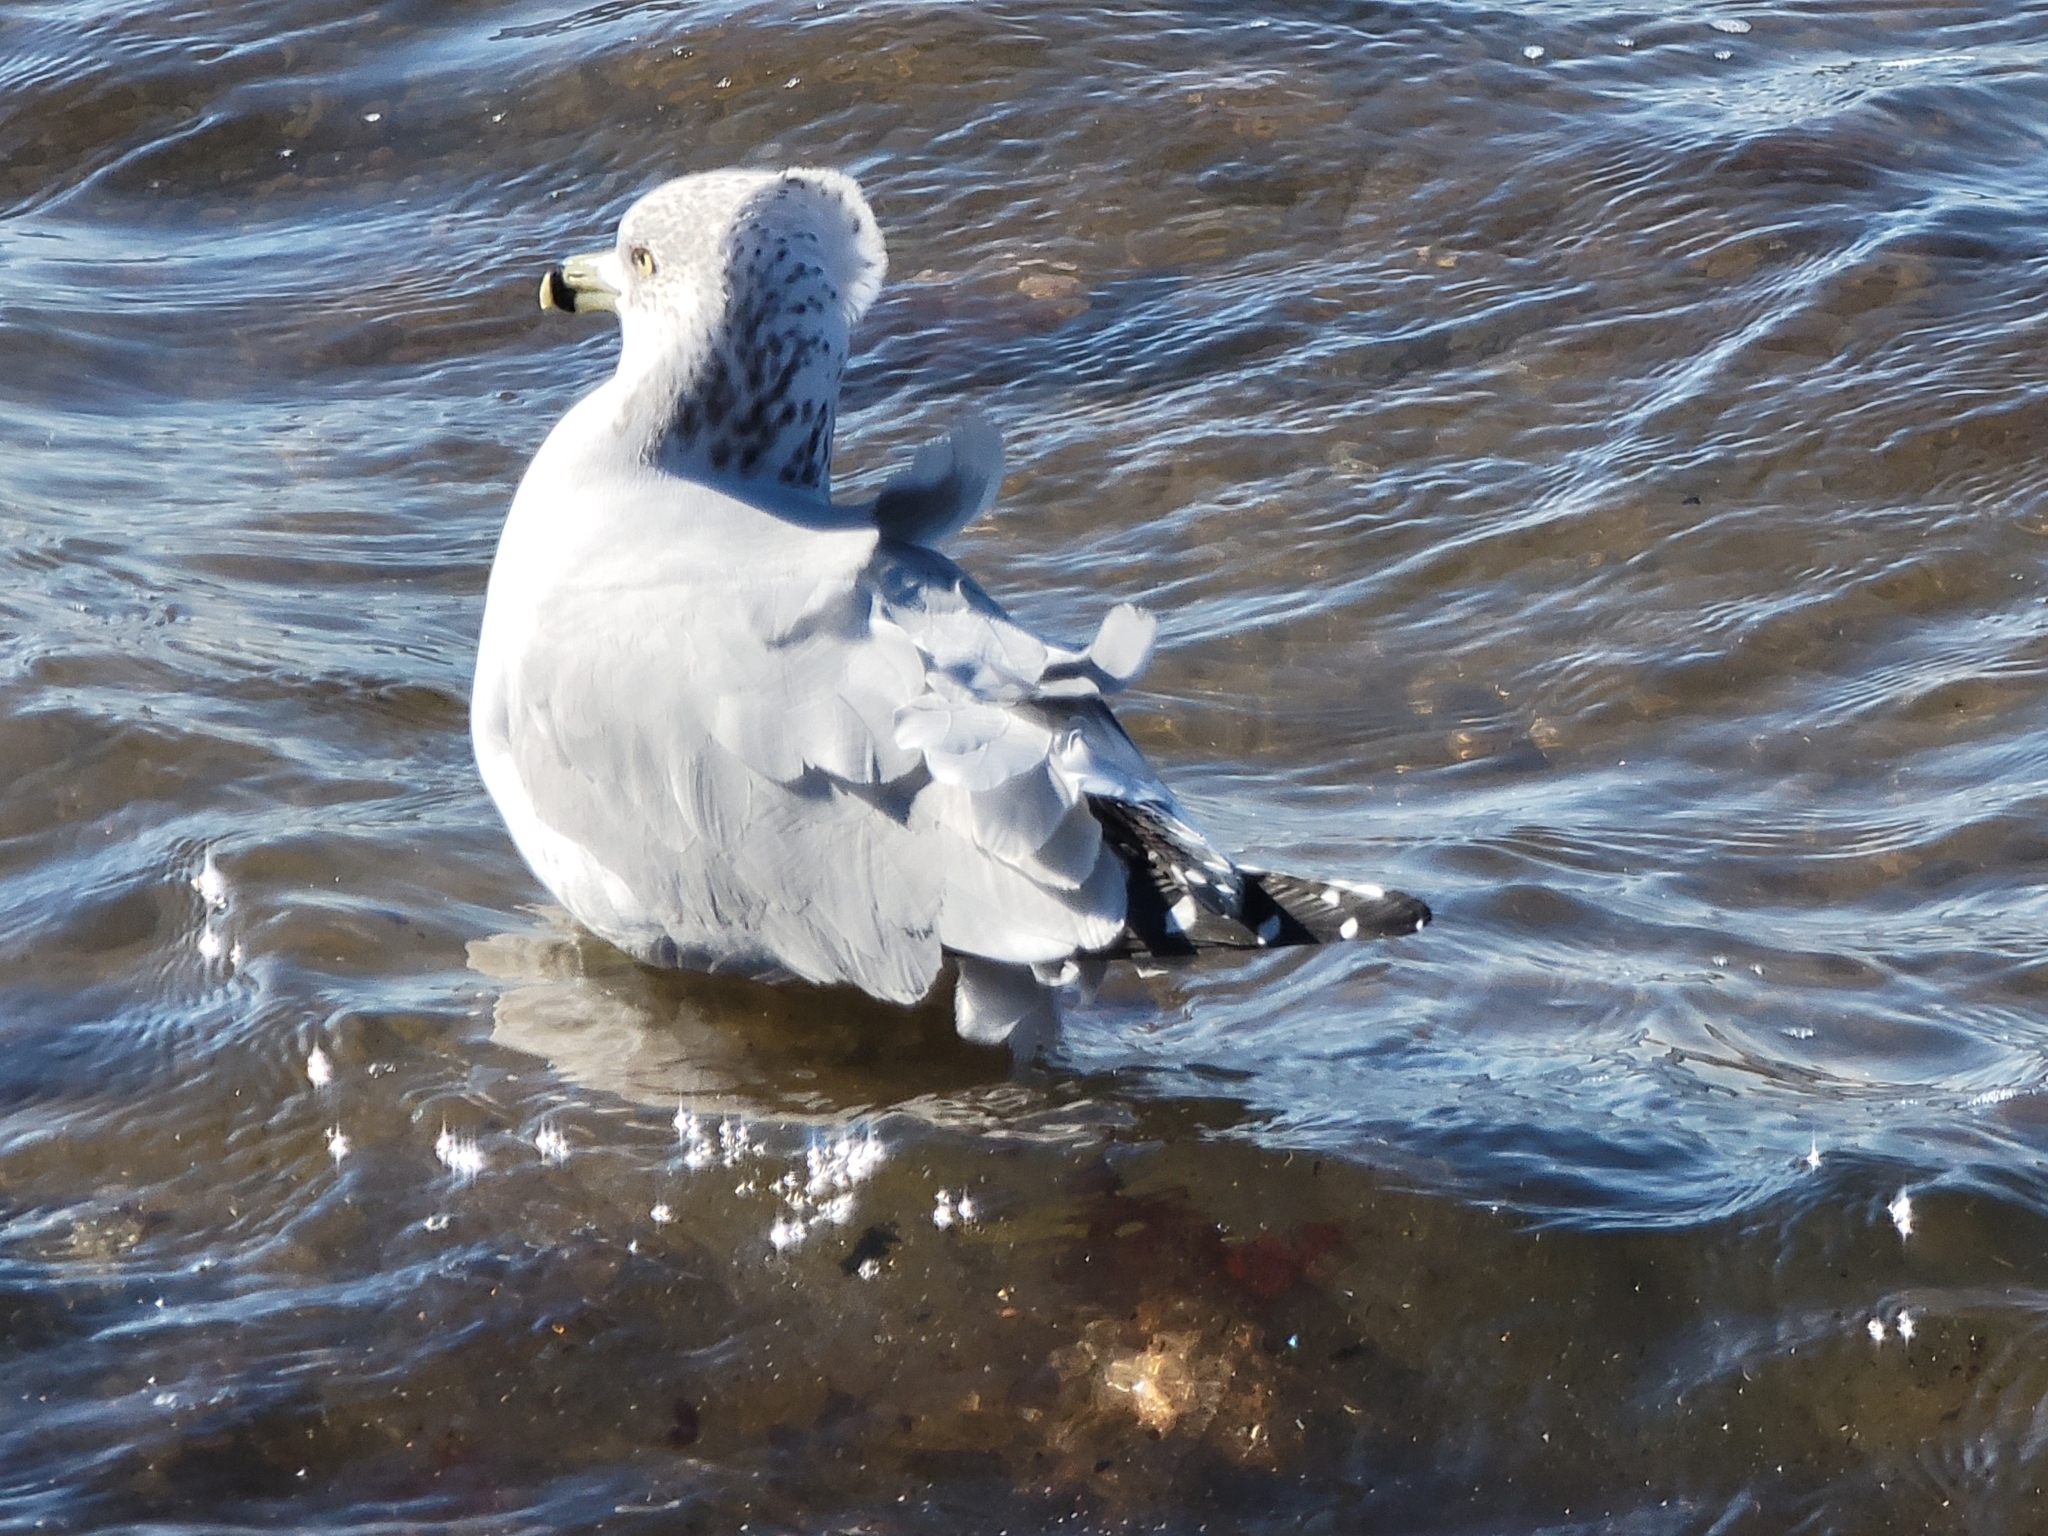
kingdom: Animalia
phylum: Chordata
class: Aves
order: Charadriiformes
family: Laridae
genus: Larus
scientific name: Larus delawarensis
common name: Ring-billed gull
